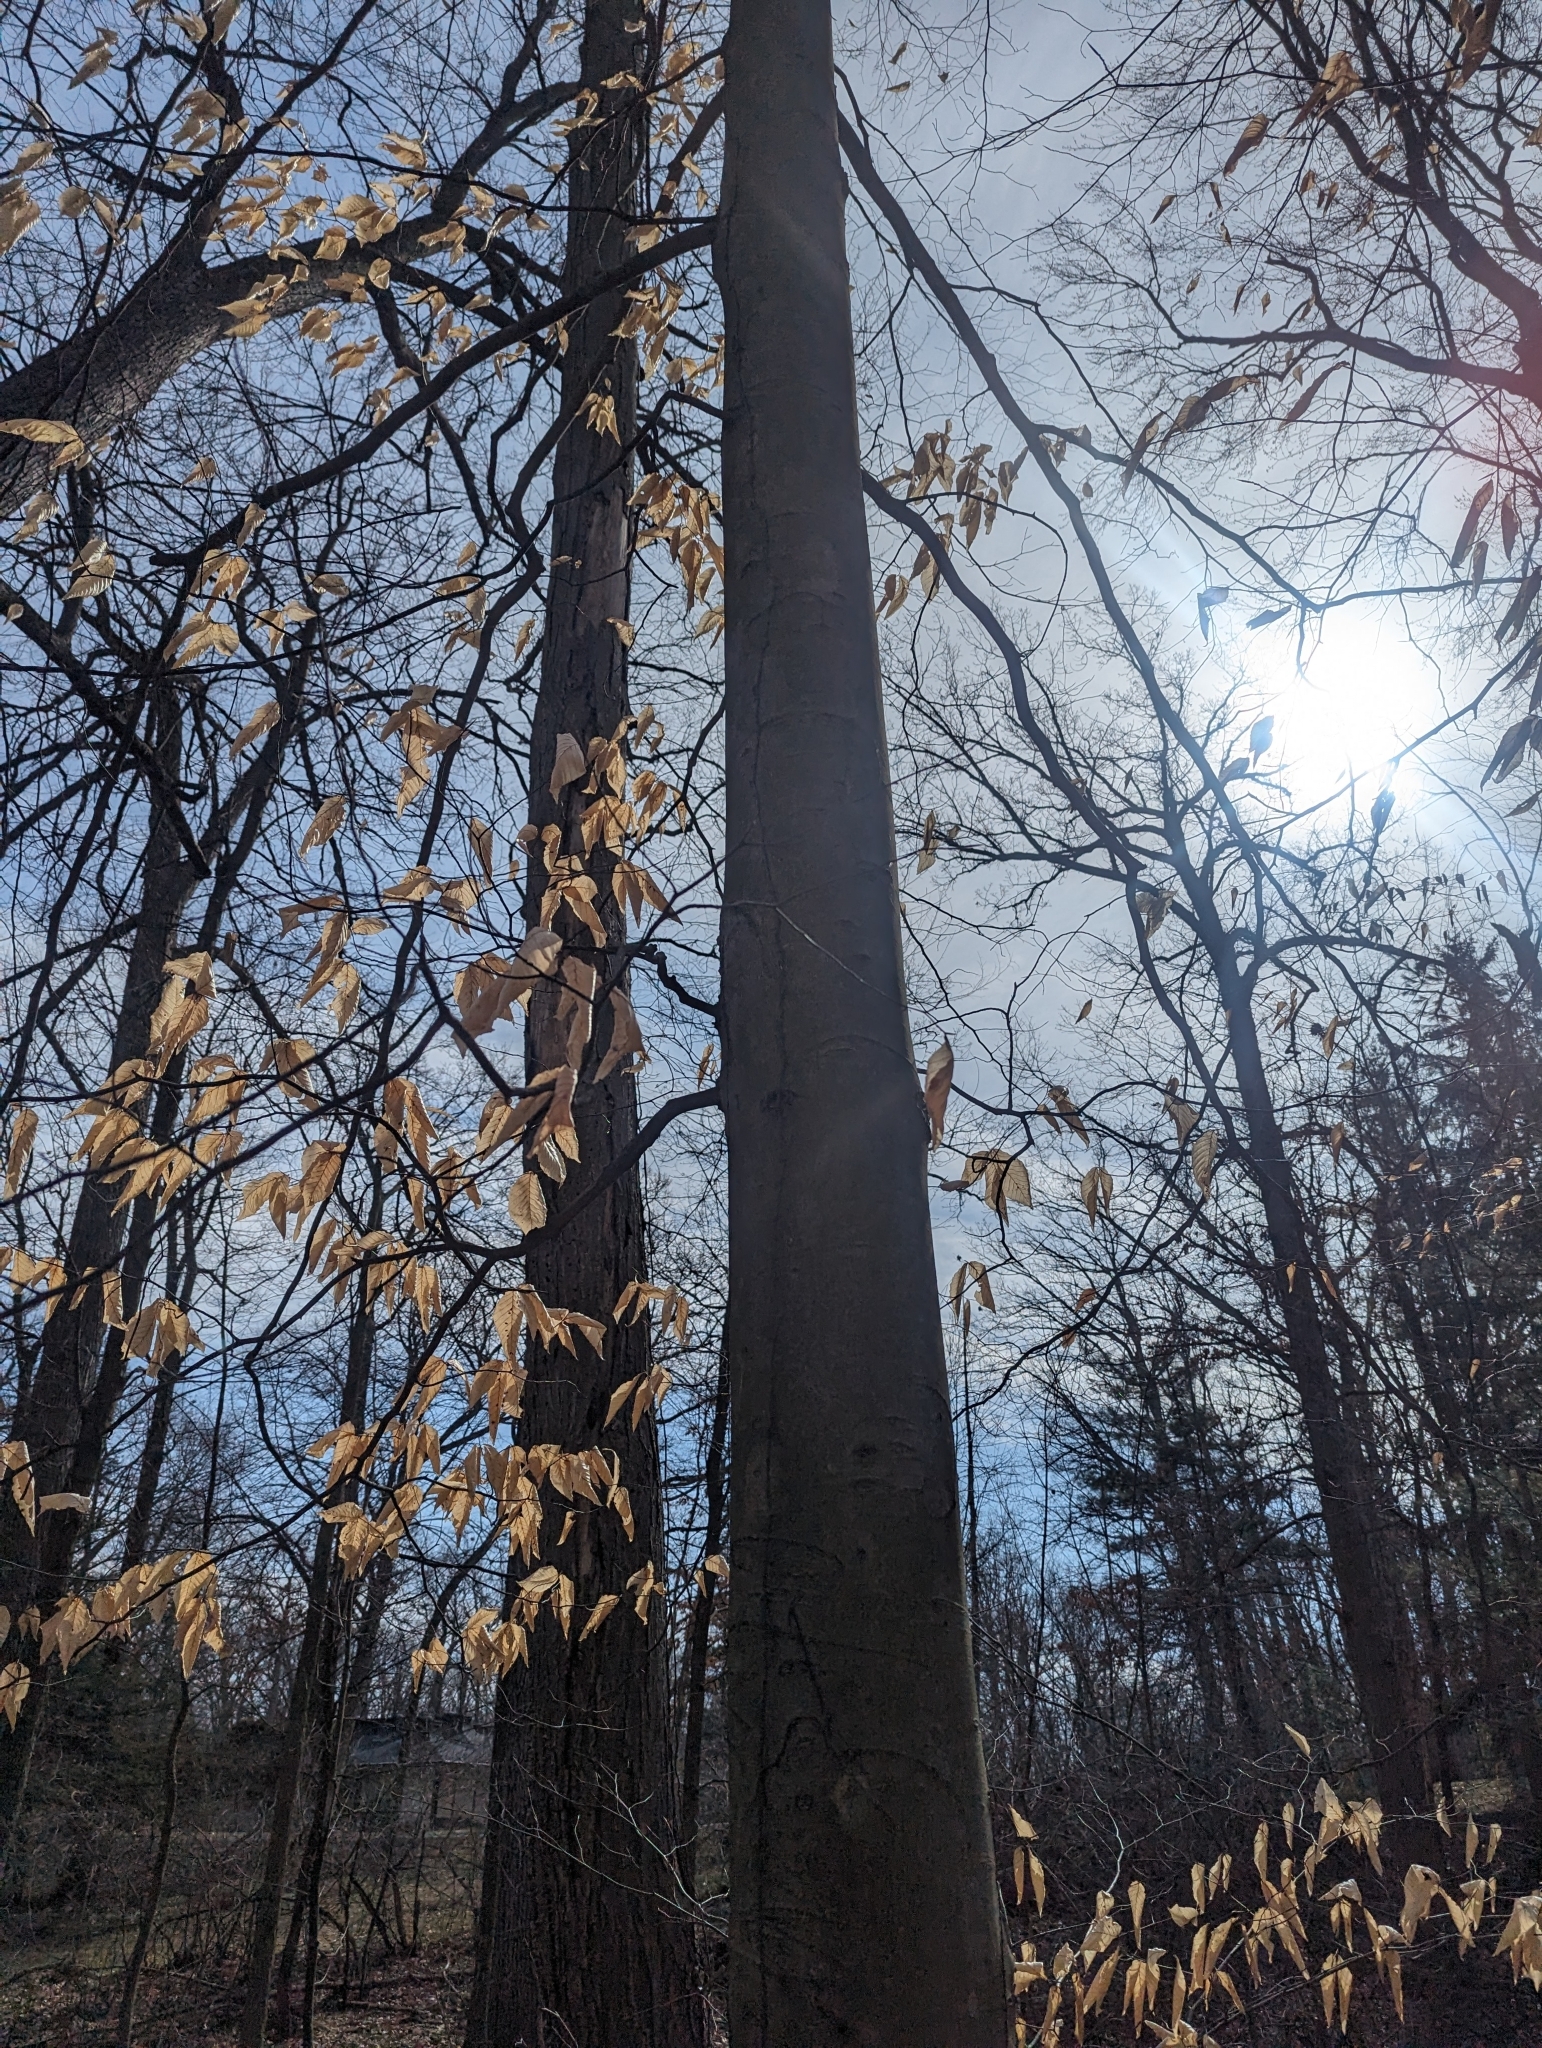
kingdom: Plantae
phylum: Tracheophyta
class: Magnoliopsida
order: Fagales
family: Fagaceae
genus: Fagus
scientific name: Fagus grandifolia
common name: American beech
